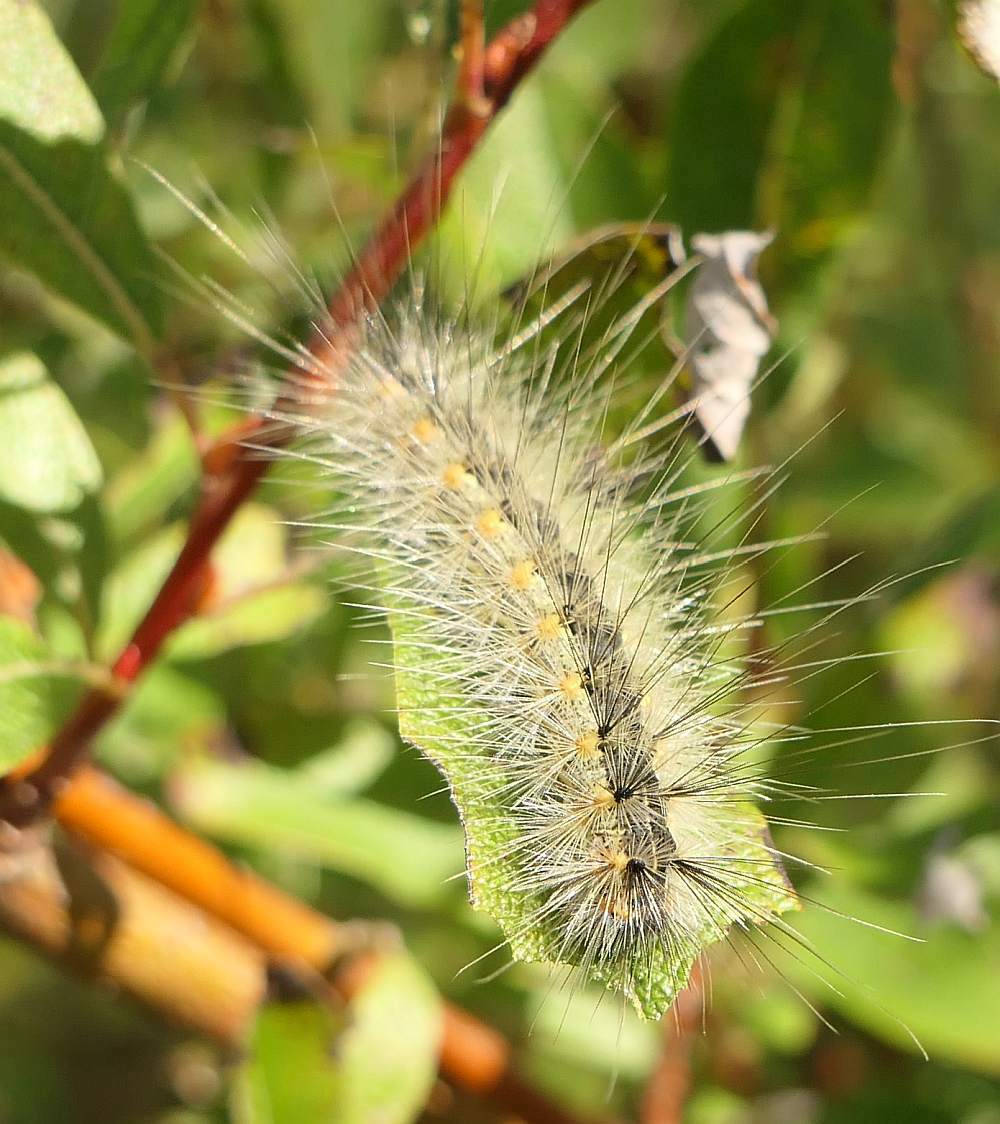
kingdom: Animalia
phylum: Arthropoda
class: Insecta
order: Lepidoptera
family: Erebidae
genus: Hyphantria
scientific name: Hyphantria cunea
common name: American white moth
